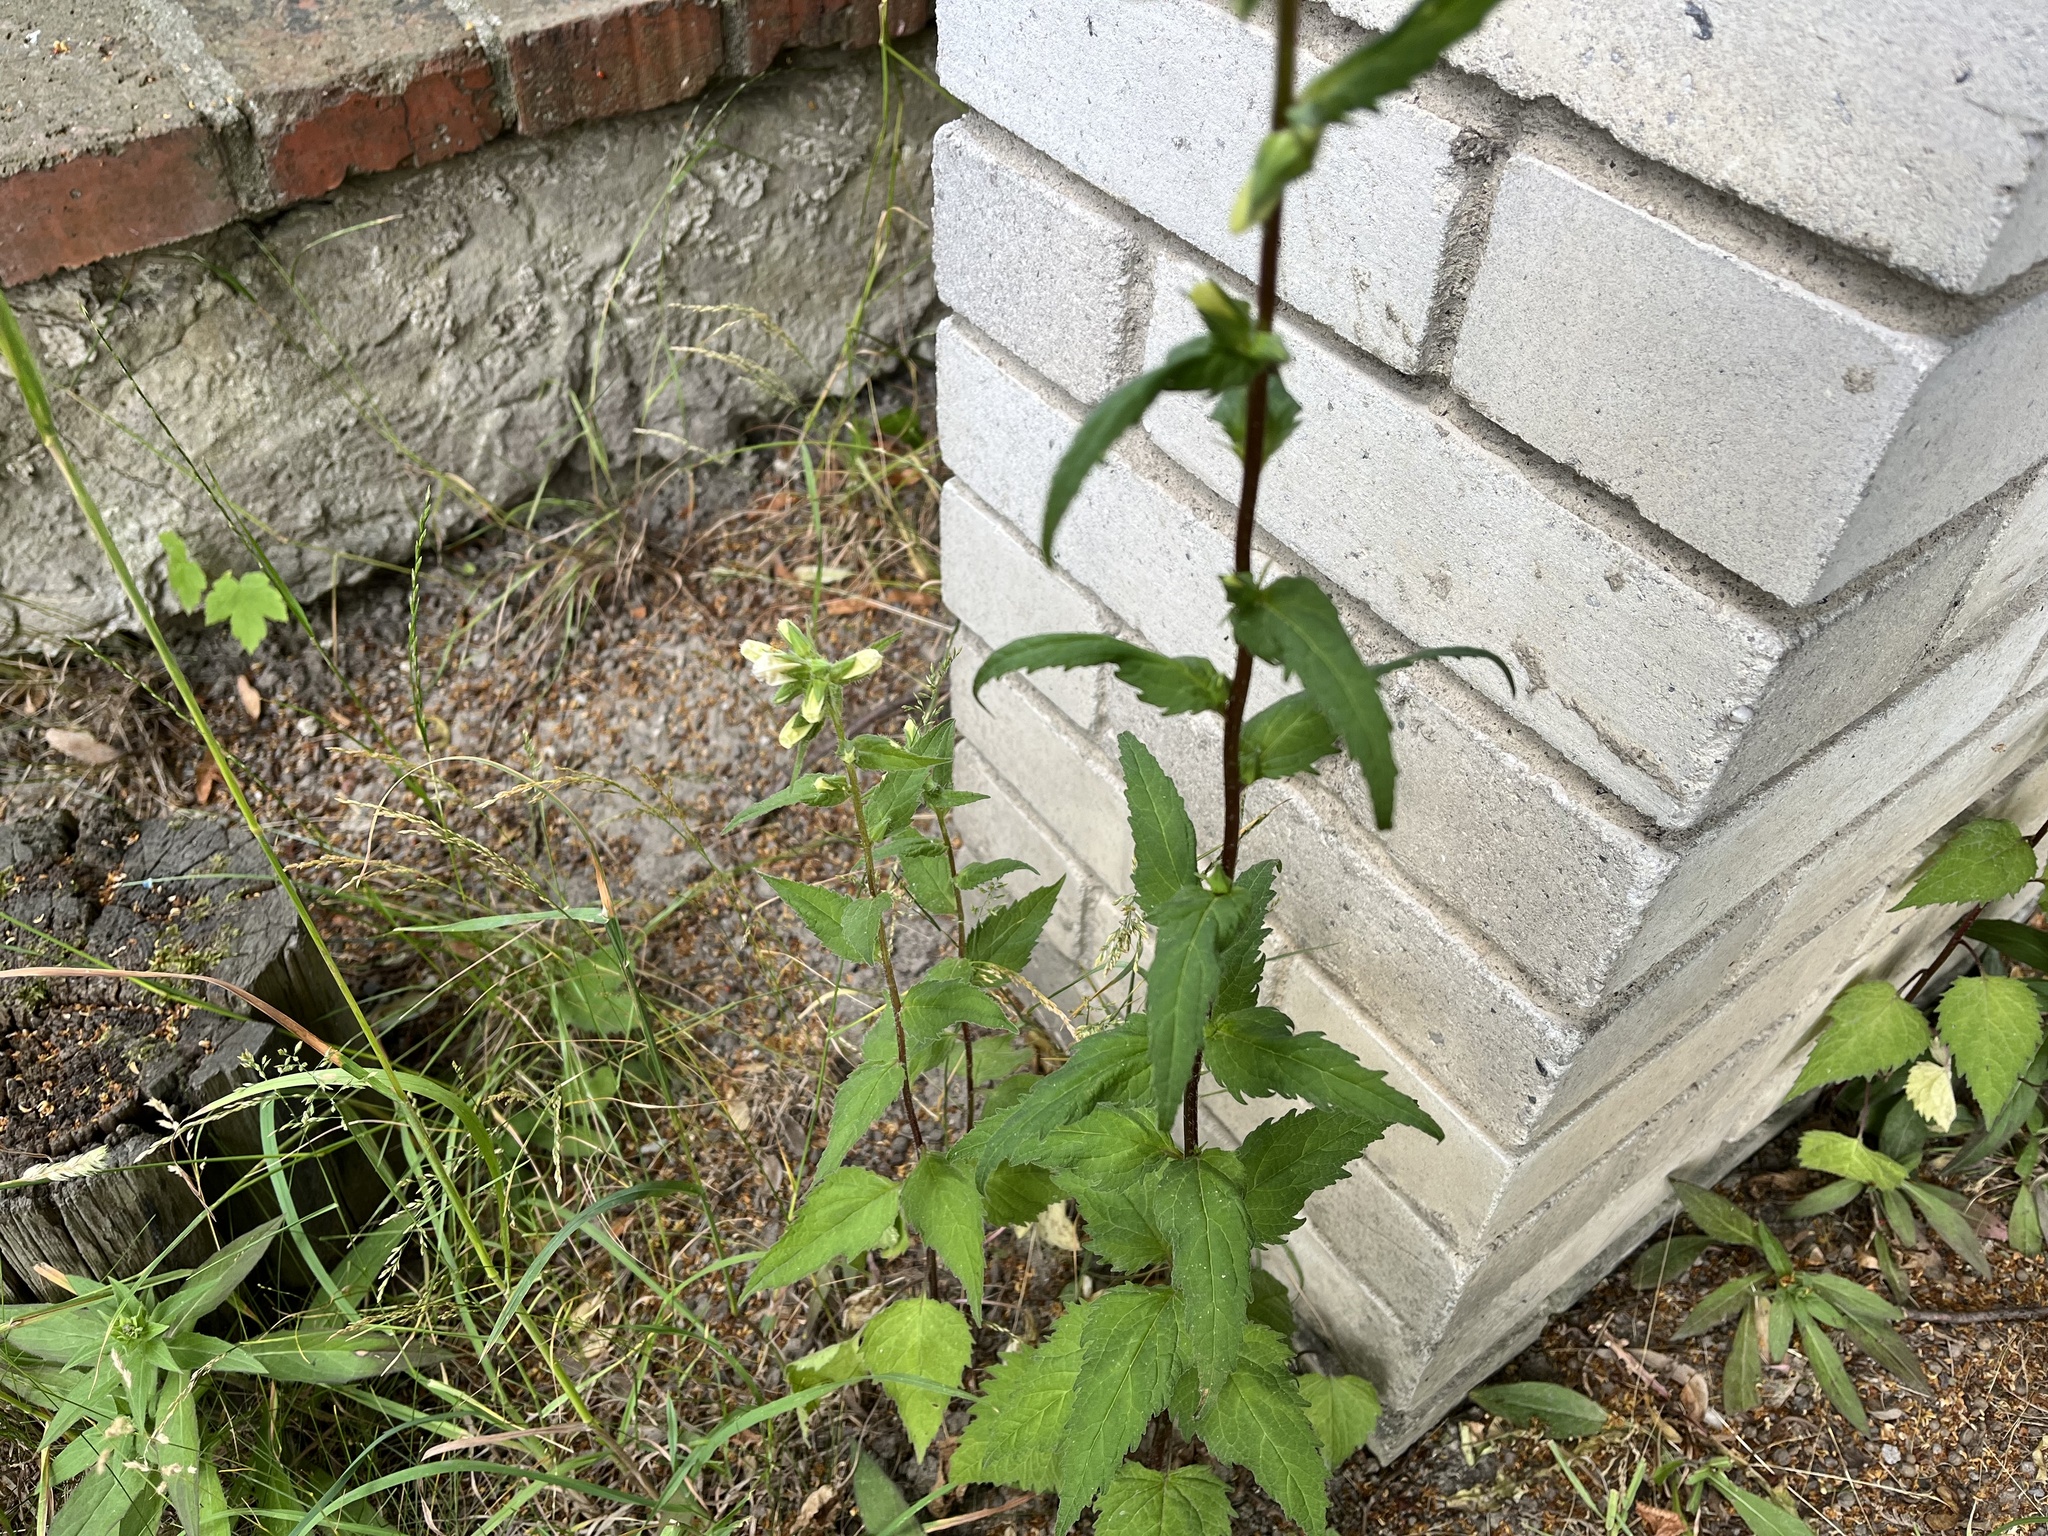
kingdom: Plantae
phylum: Tracheophyta
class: Magnoliopsida
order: Asterales
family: Campanulaceae
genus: Campanula
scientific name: Campanula trachelium
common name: Nettle-leaved bellflower
